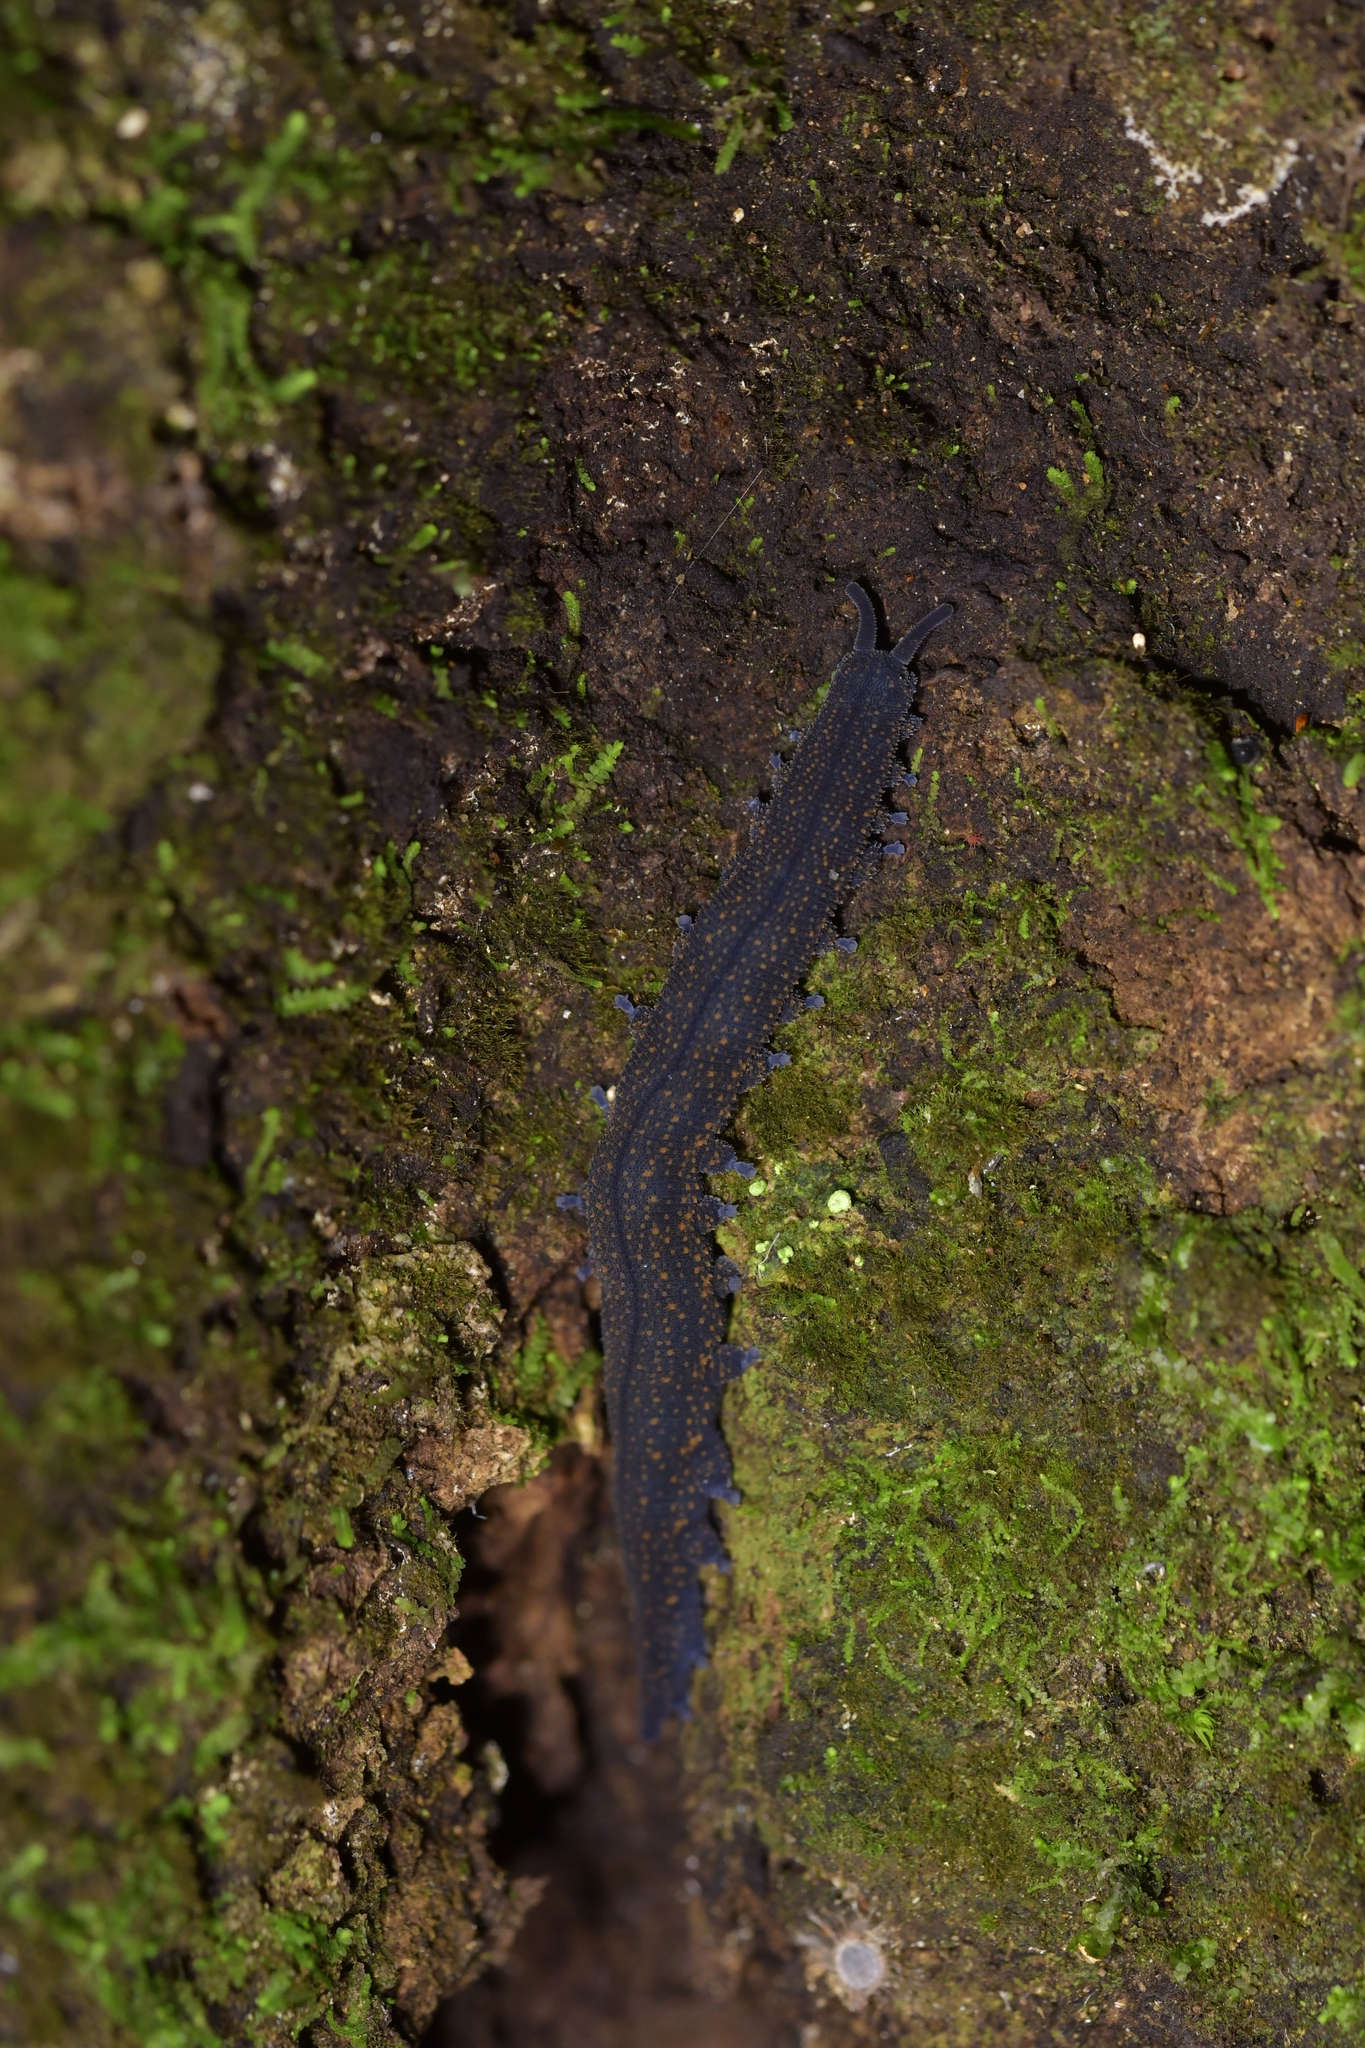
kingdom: Animalia
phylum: Onychophora
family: Peripatopsidae
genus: Peripatoides
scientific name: Peripatoides novaezealandiae
